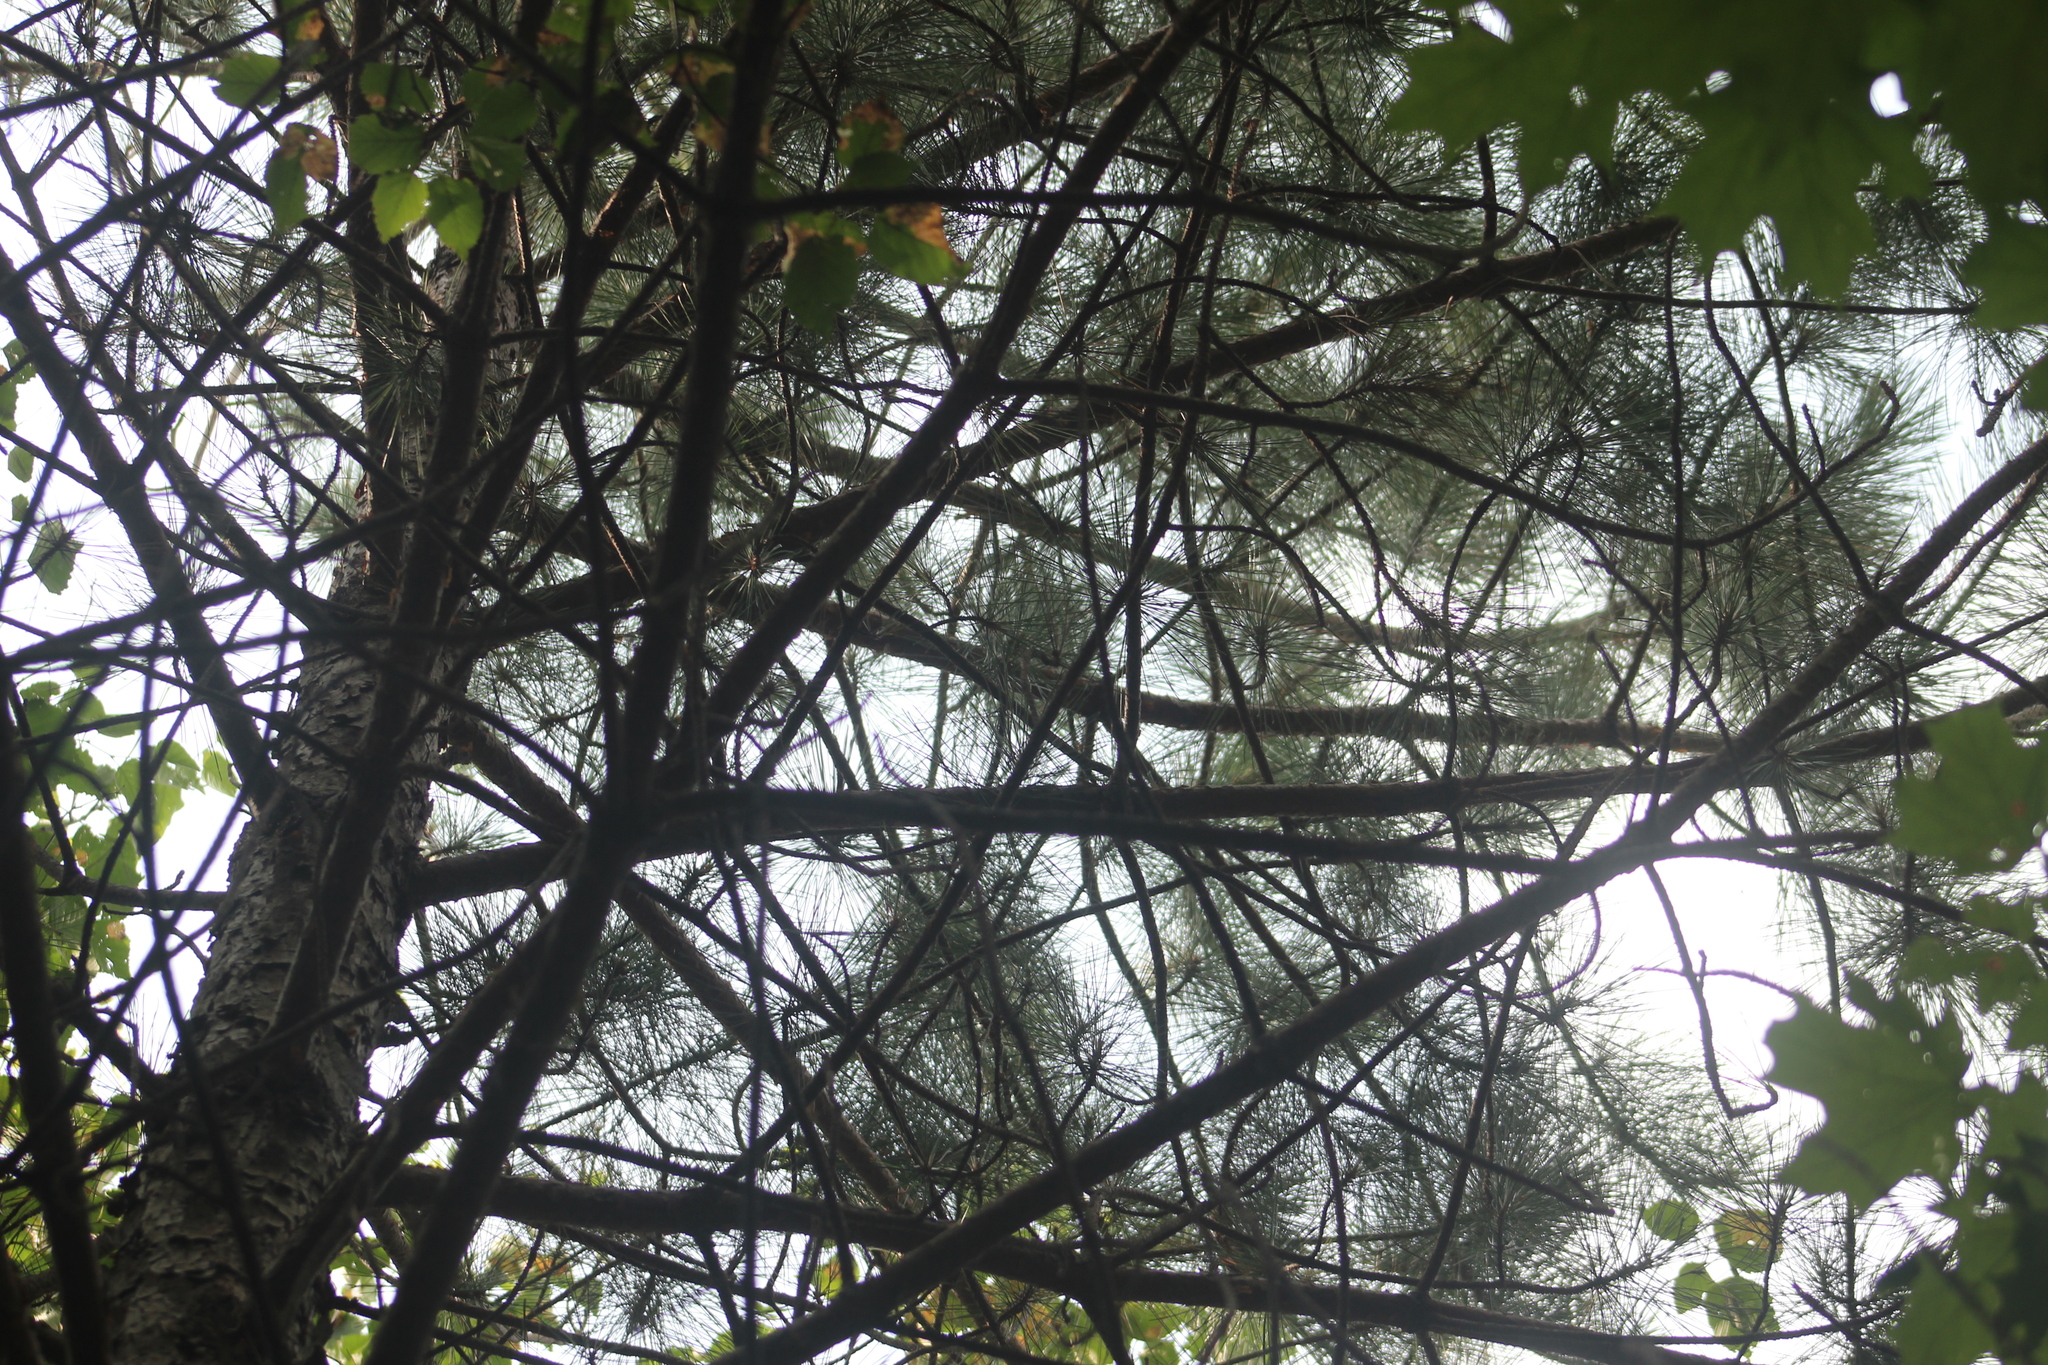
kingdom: Plantae
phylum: Tracheophyta
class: Pinopsida
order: Pinales
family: Pinaceae
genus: Pinus
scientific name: Pinus resinosa
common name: Norway pine
